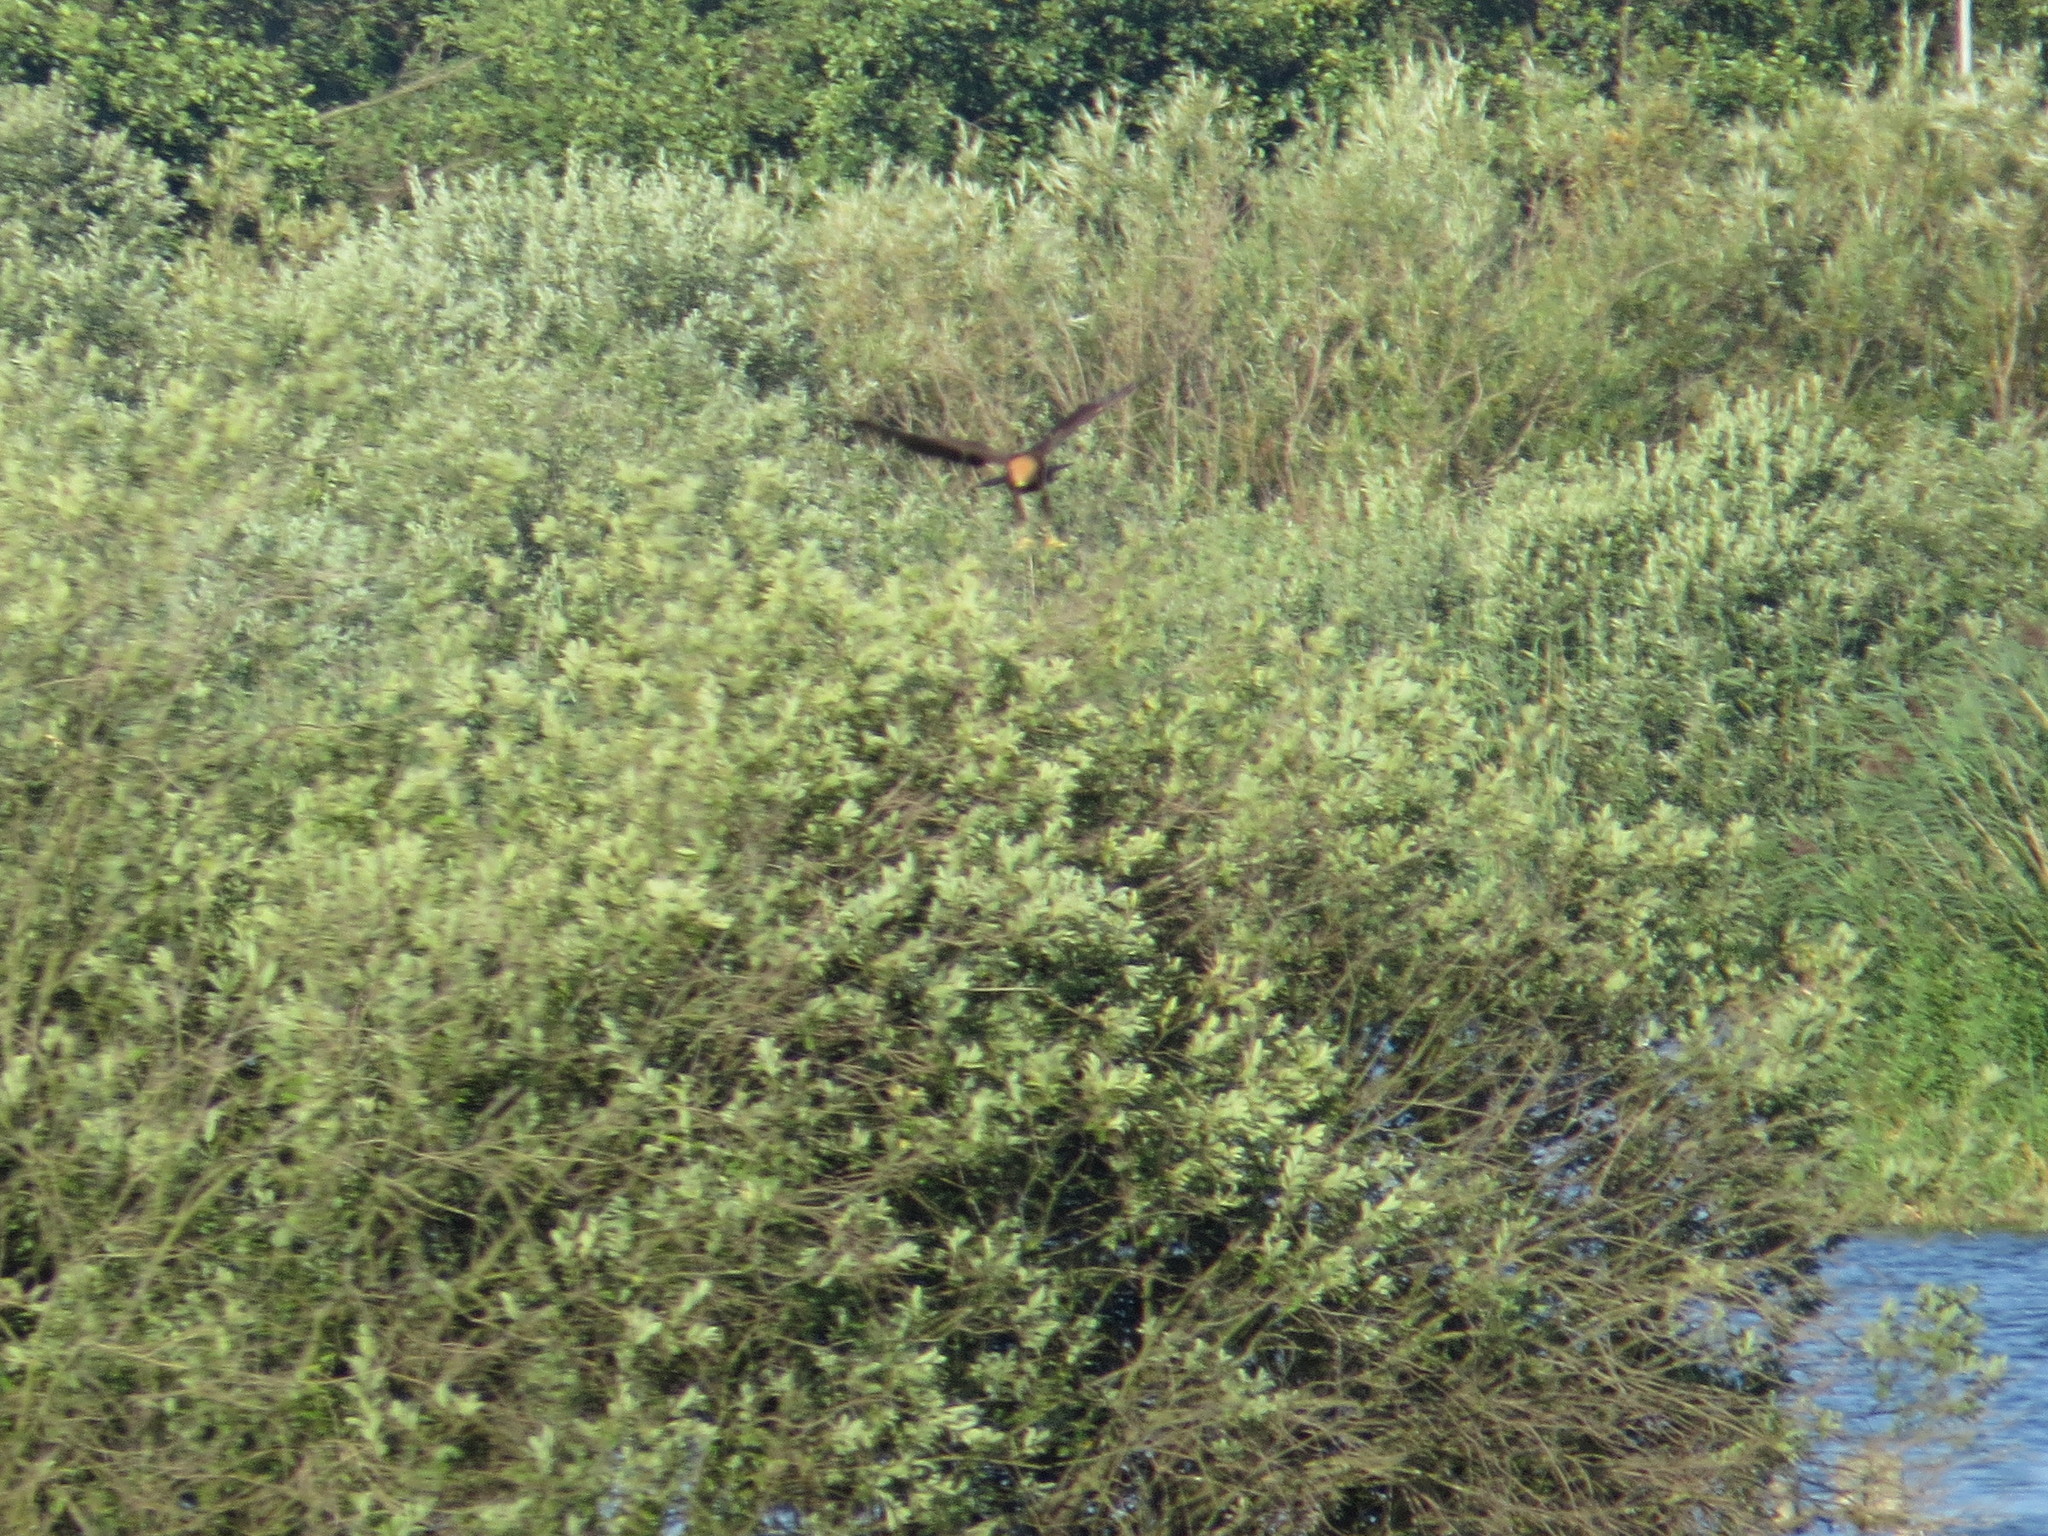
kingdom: Animalia
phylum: Chordata
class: Aves
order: Accipitriformes
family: Accipitridae
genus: Circus
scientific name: Circus aeruginosus
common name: Western marsh harrier
